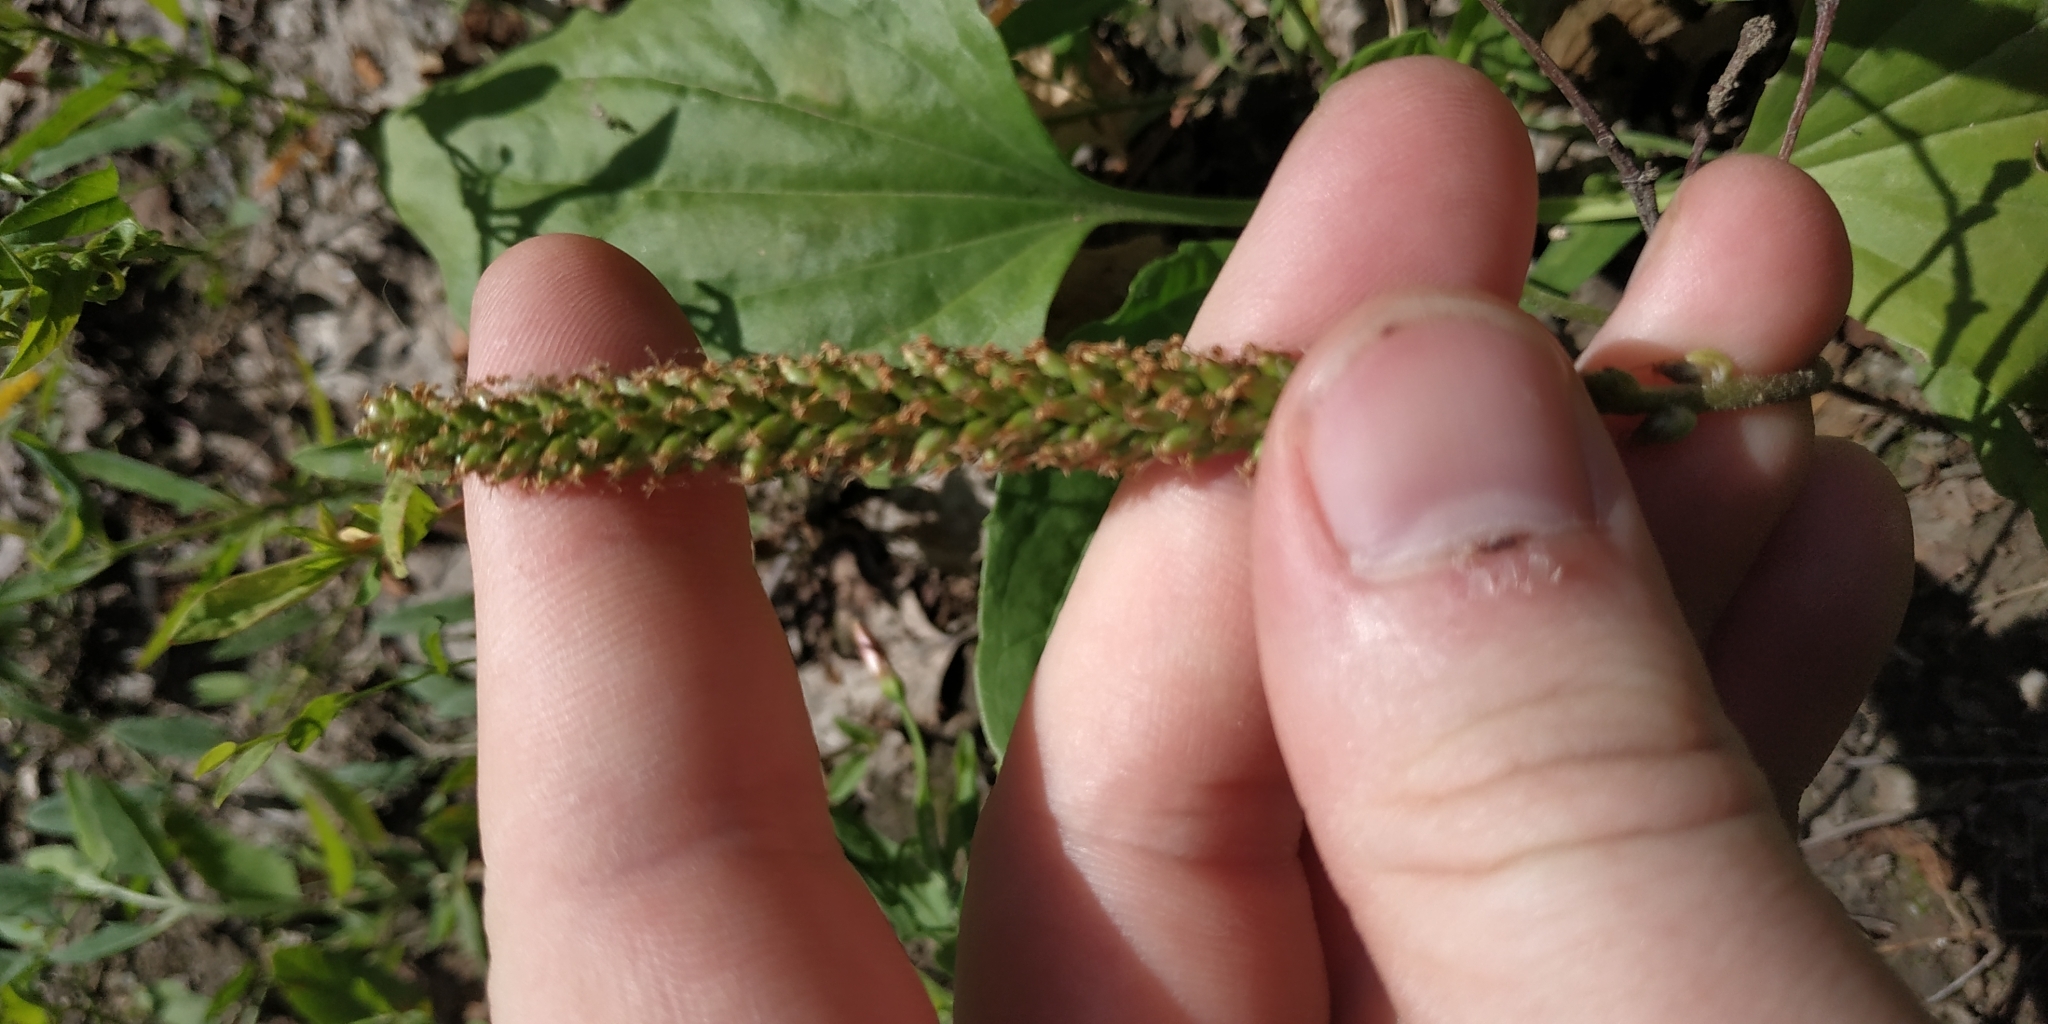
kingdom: Plantae
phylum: Tracheophyta
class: Magnoliopsida
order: Lamiales
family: Plantaginaceae
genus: Plantago
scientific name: Plantago major
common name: Common plantain
